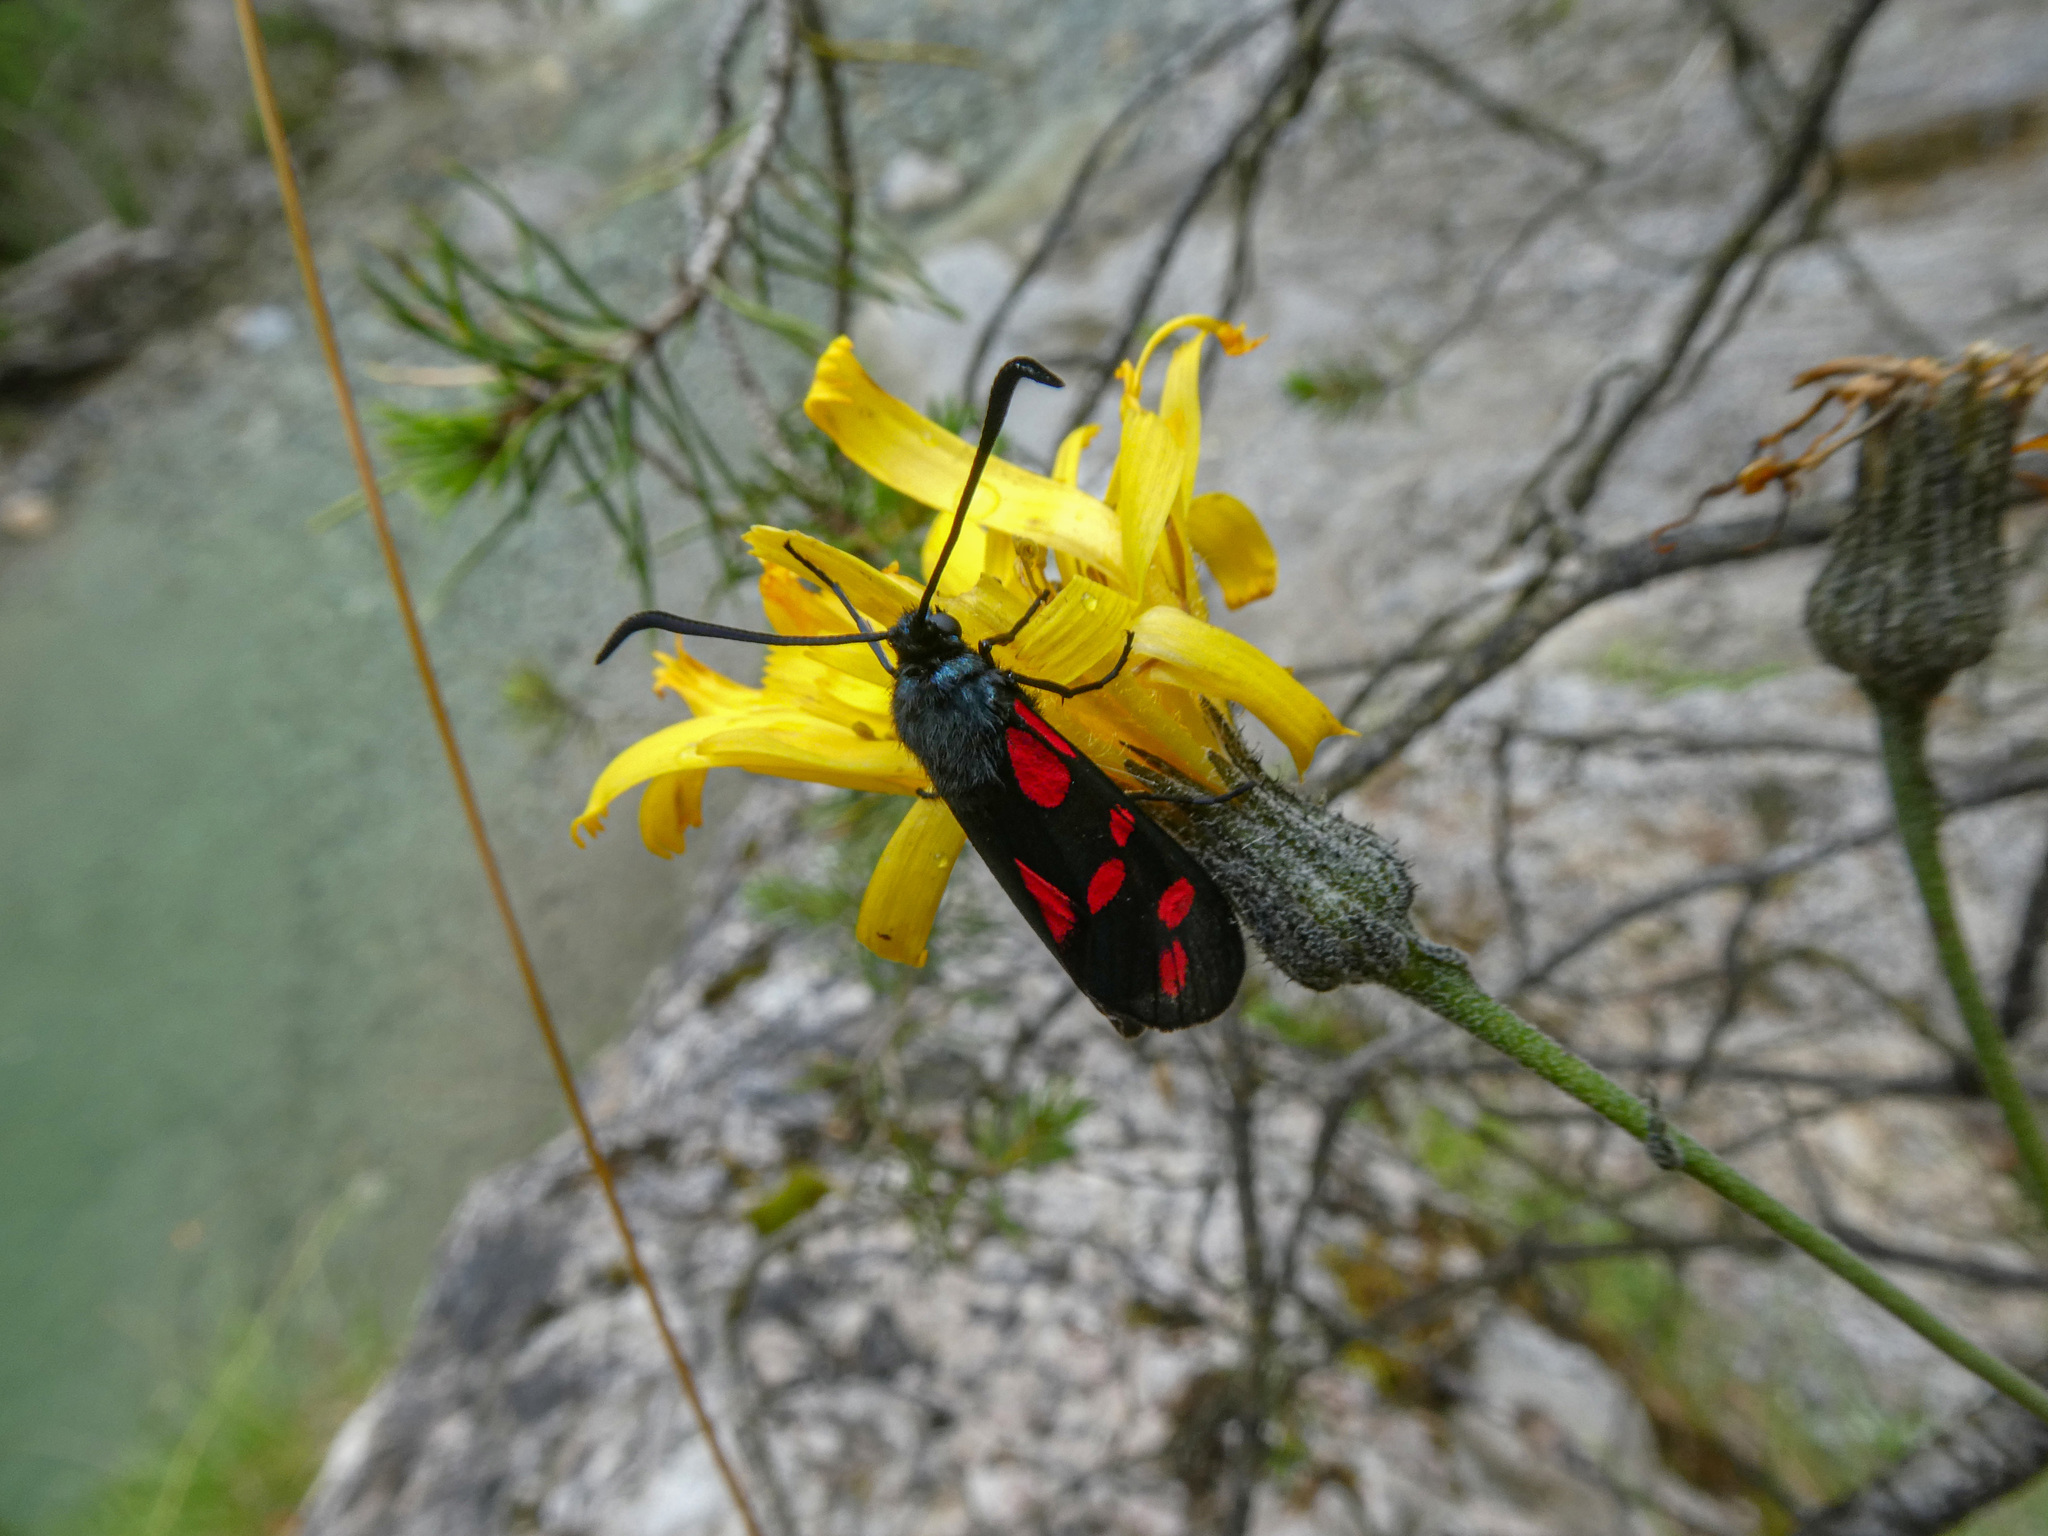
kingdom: Animalia
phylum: Arthropoda
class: Insecta
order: Lepidoptera
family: Zygaenidae
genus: Zygaena
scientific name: Zygaena filipendulae
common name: Six-spot burnet
